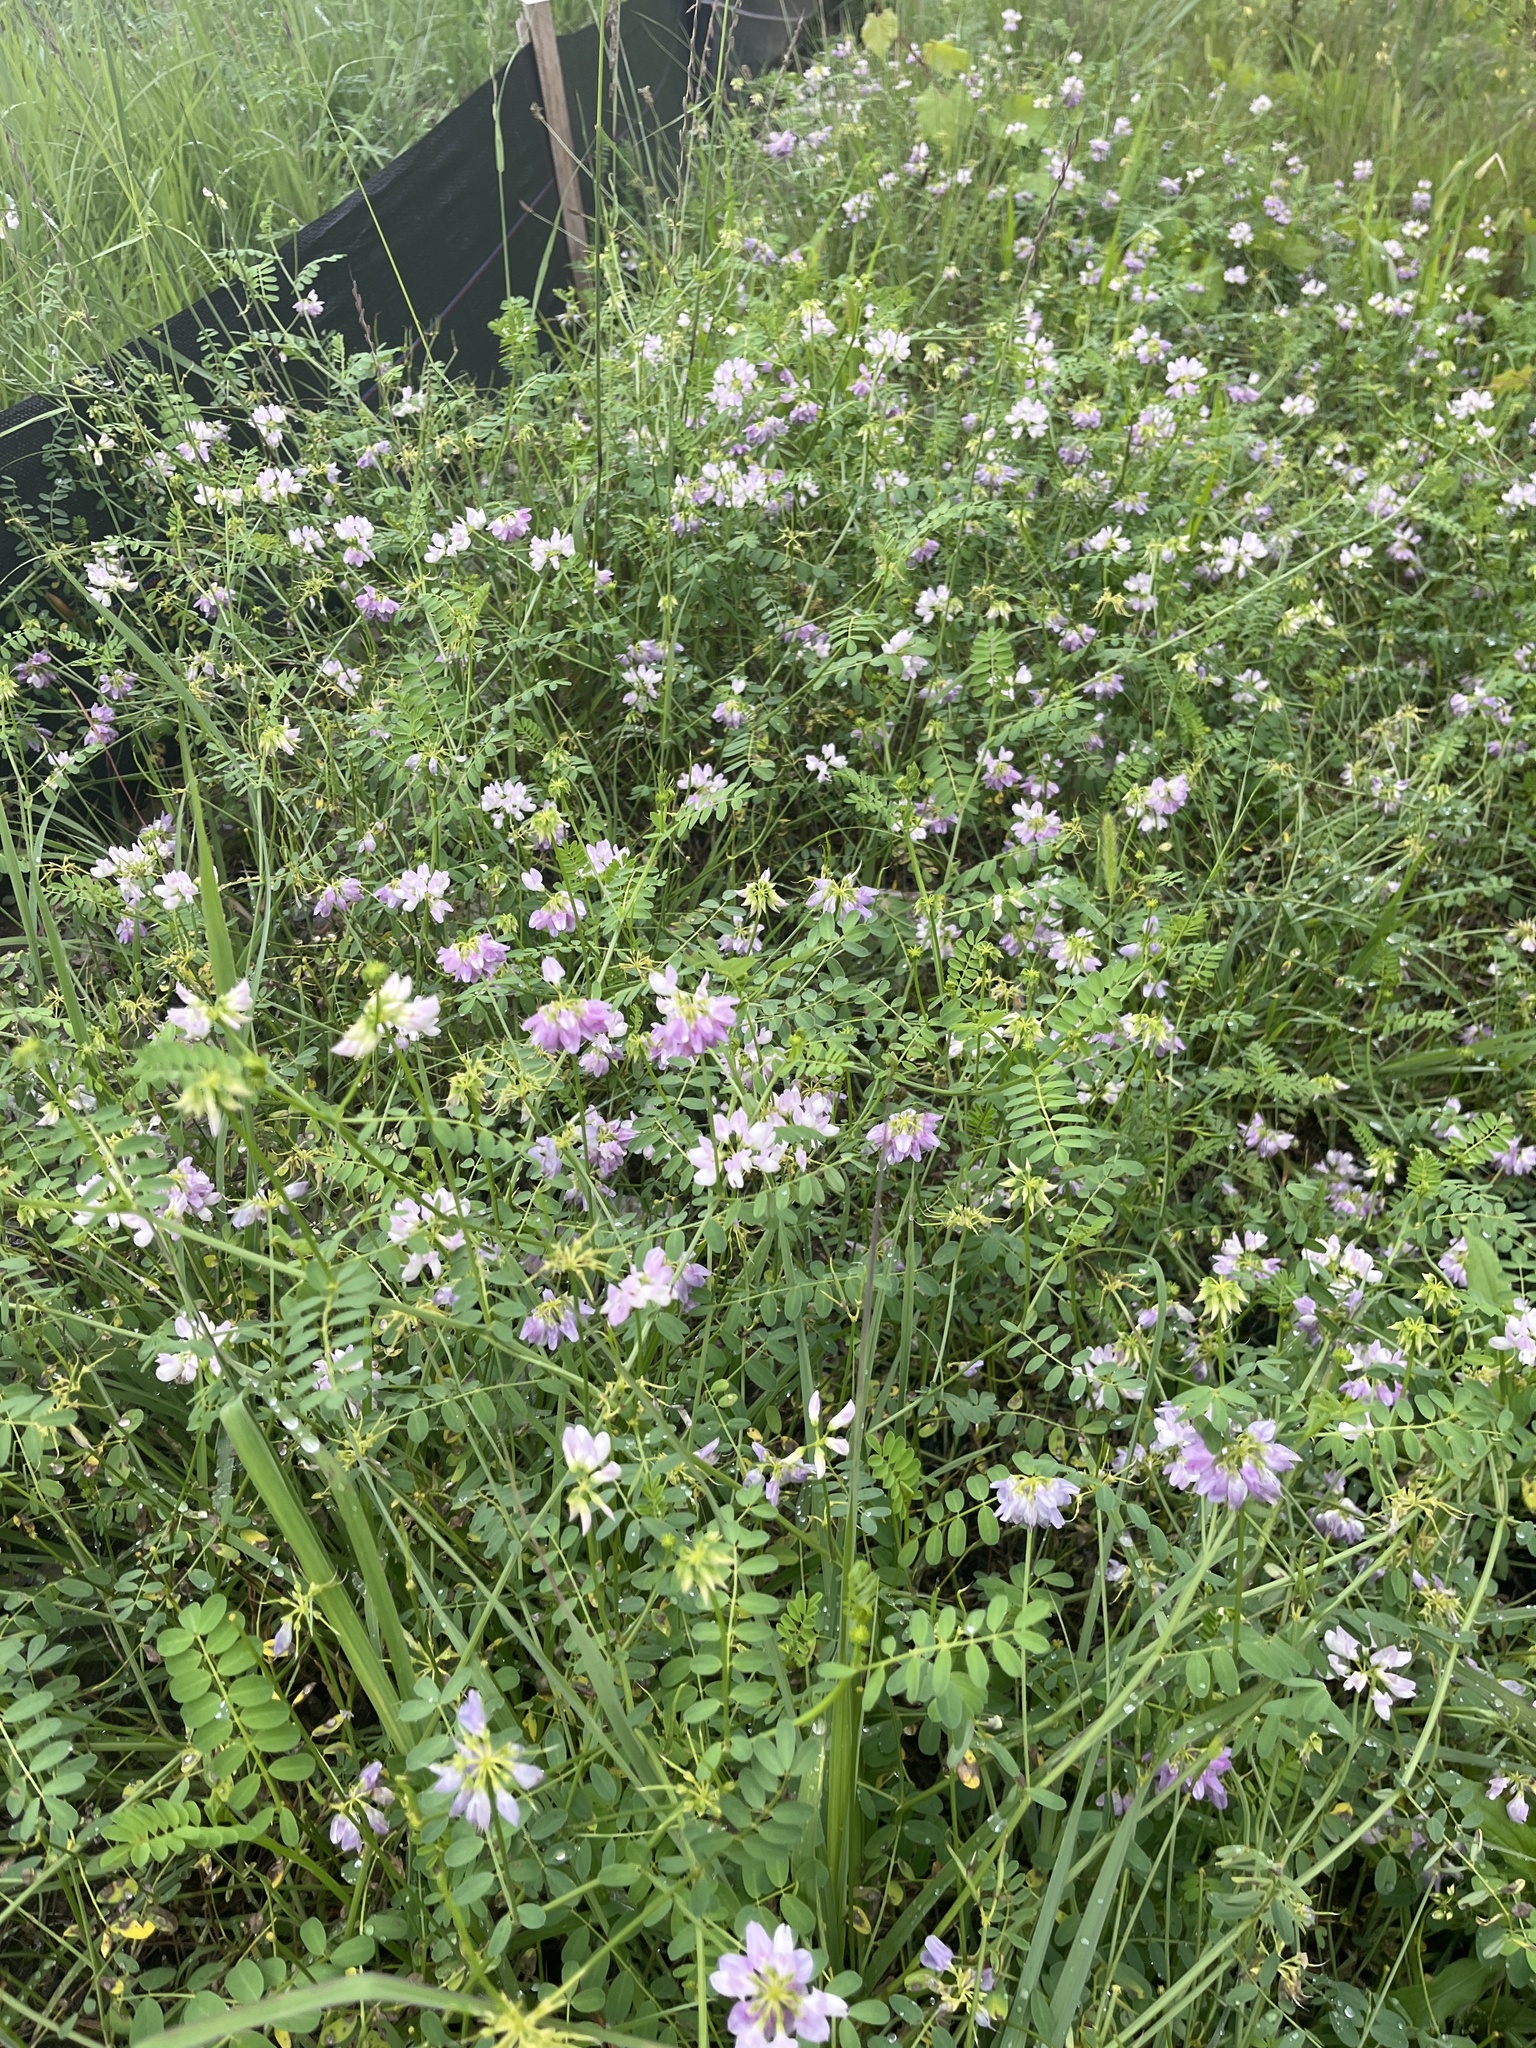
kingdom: Plantae
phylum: Tracheophyta
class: Magnoliopsida
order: Fabales
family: Fabaceae
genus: Coronilla
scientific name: Coronilla varia
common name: Crownvetch
